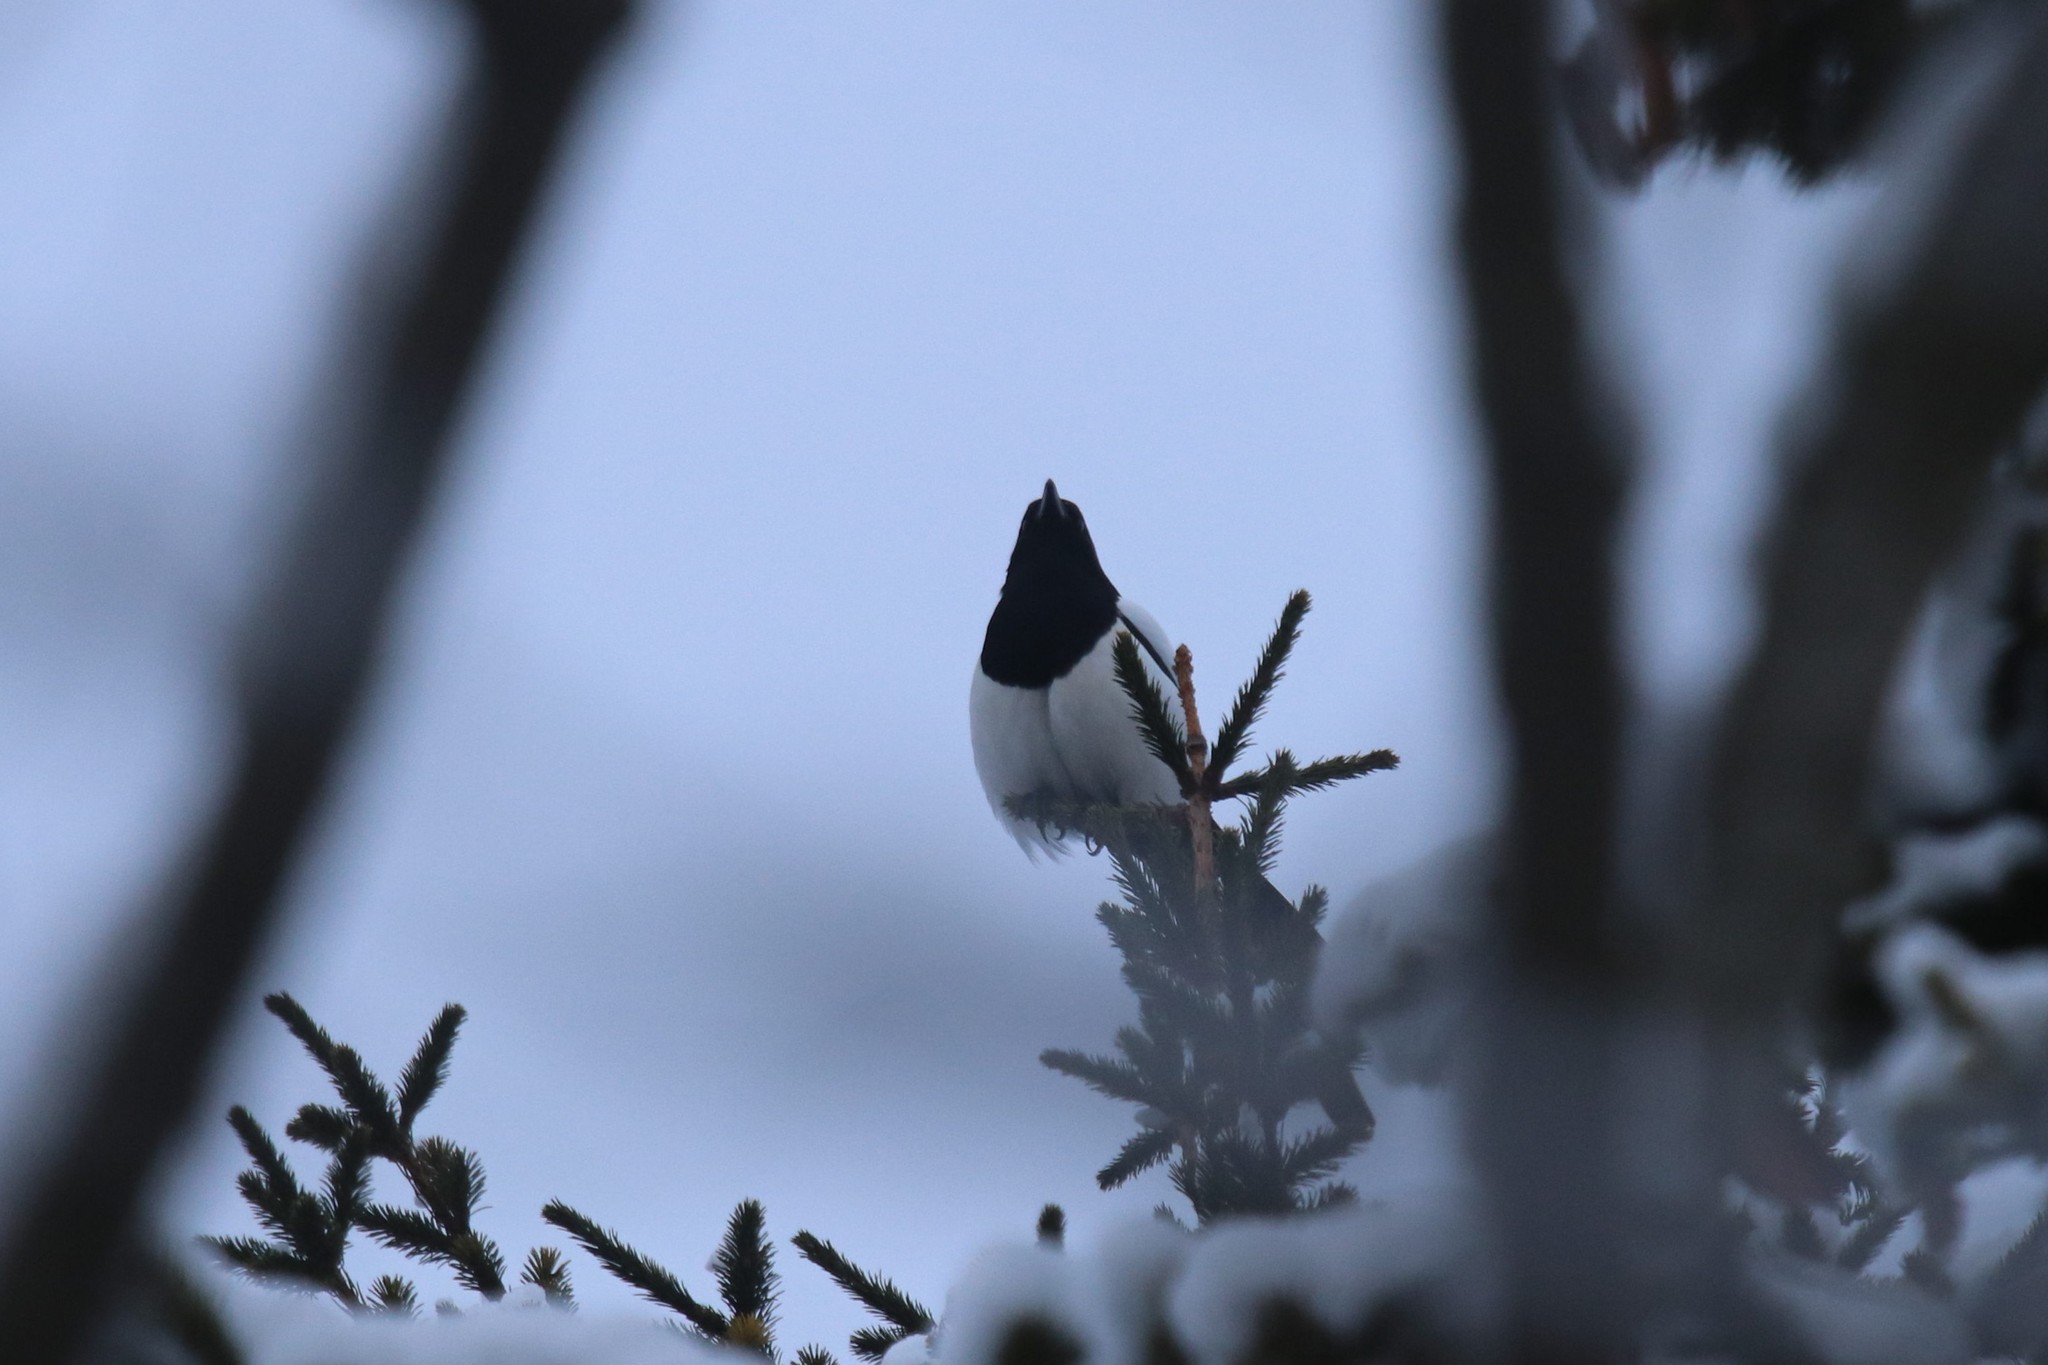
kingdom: Animalia
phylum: Chordata
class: Aves
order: Passeriformes
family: Corvidae
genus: Pica
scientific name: Pica pica
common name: Eurasian magpie
